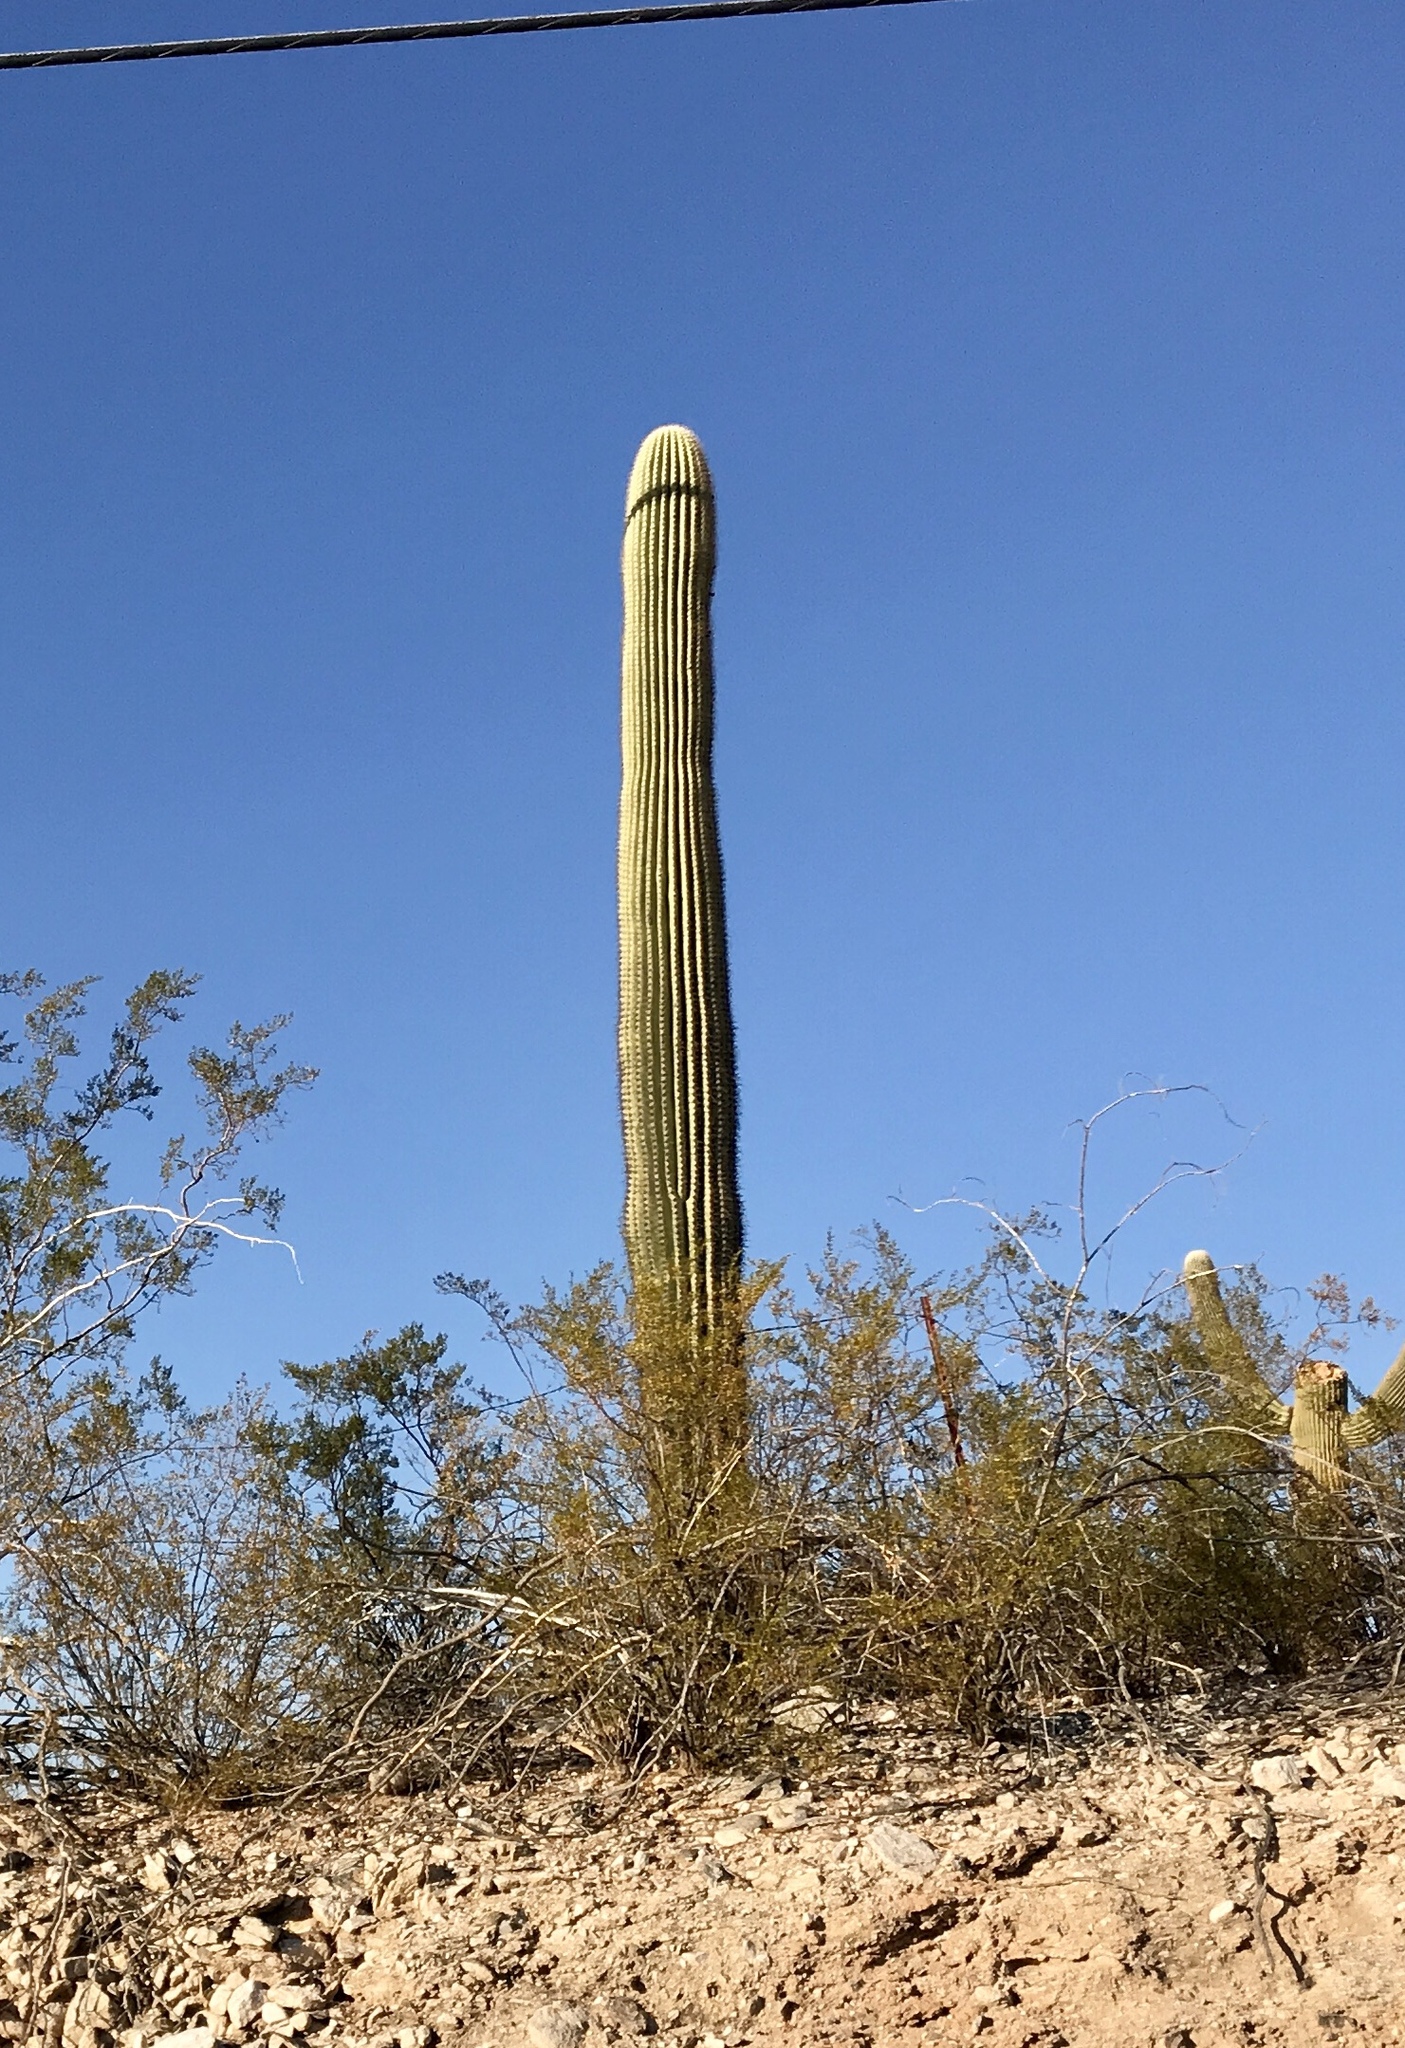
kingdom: Plantae
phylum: Tracheophyta
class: Magnoliopsida
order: Caryophyllales
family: Cactaceae
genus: Carnegiea
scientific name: Carnegiea gigantea
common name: Saguaro
